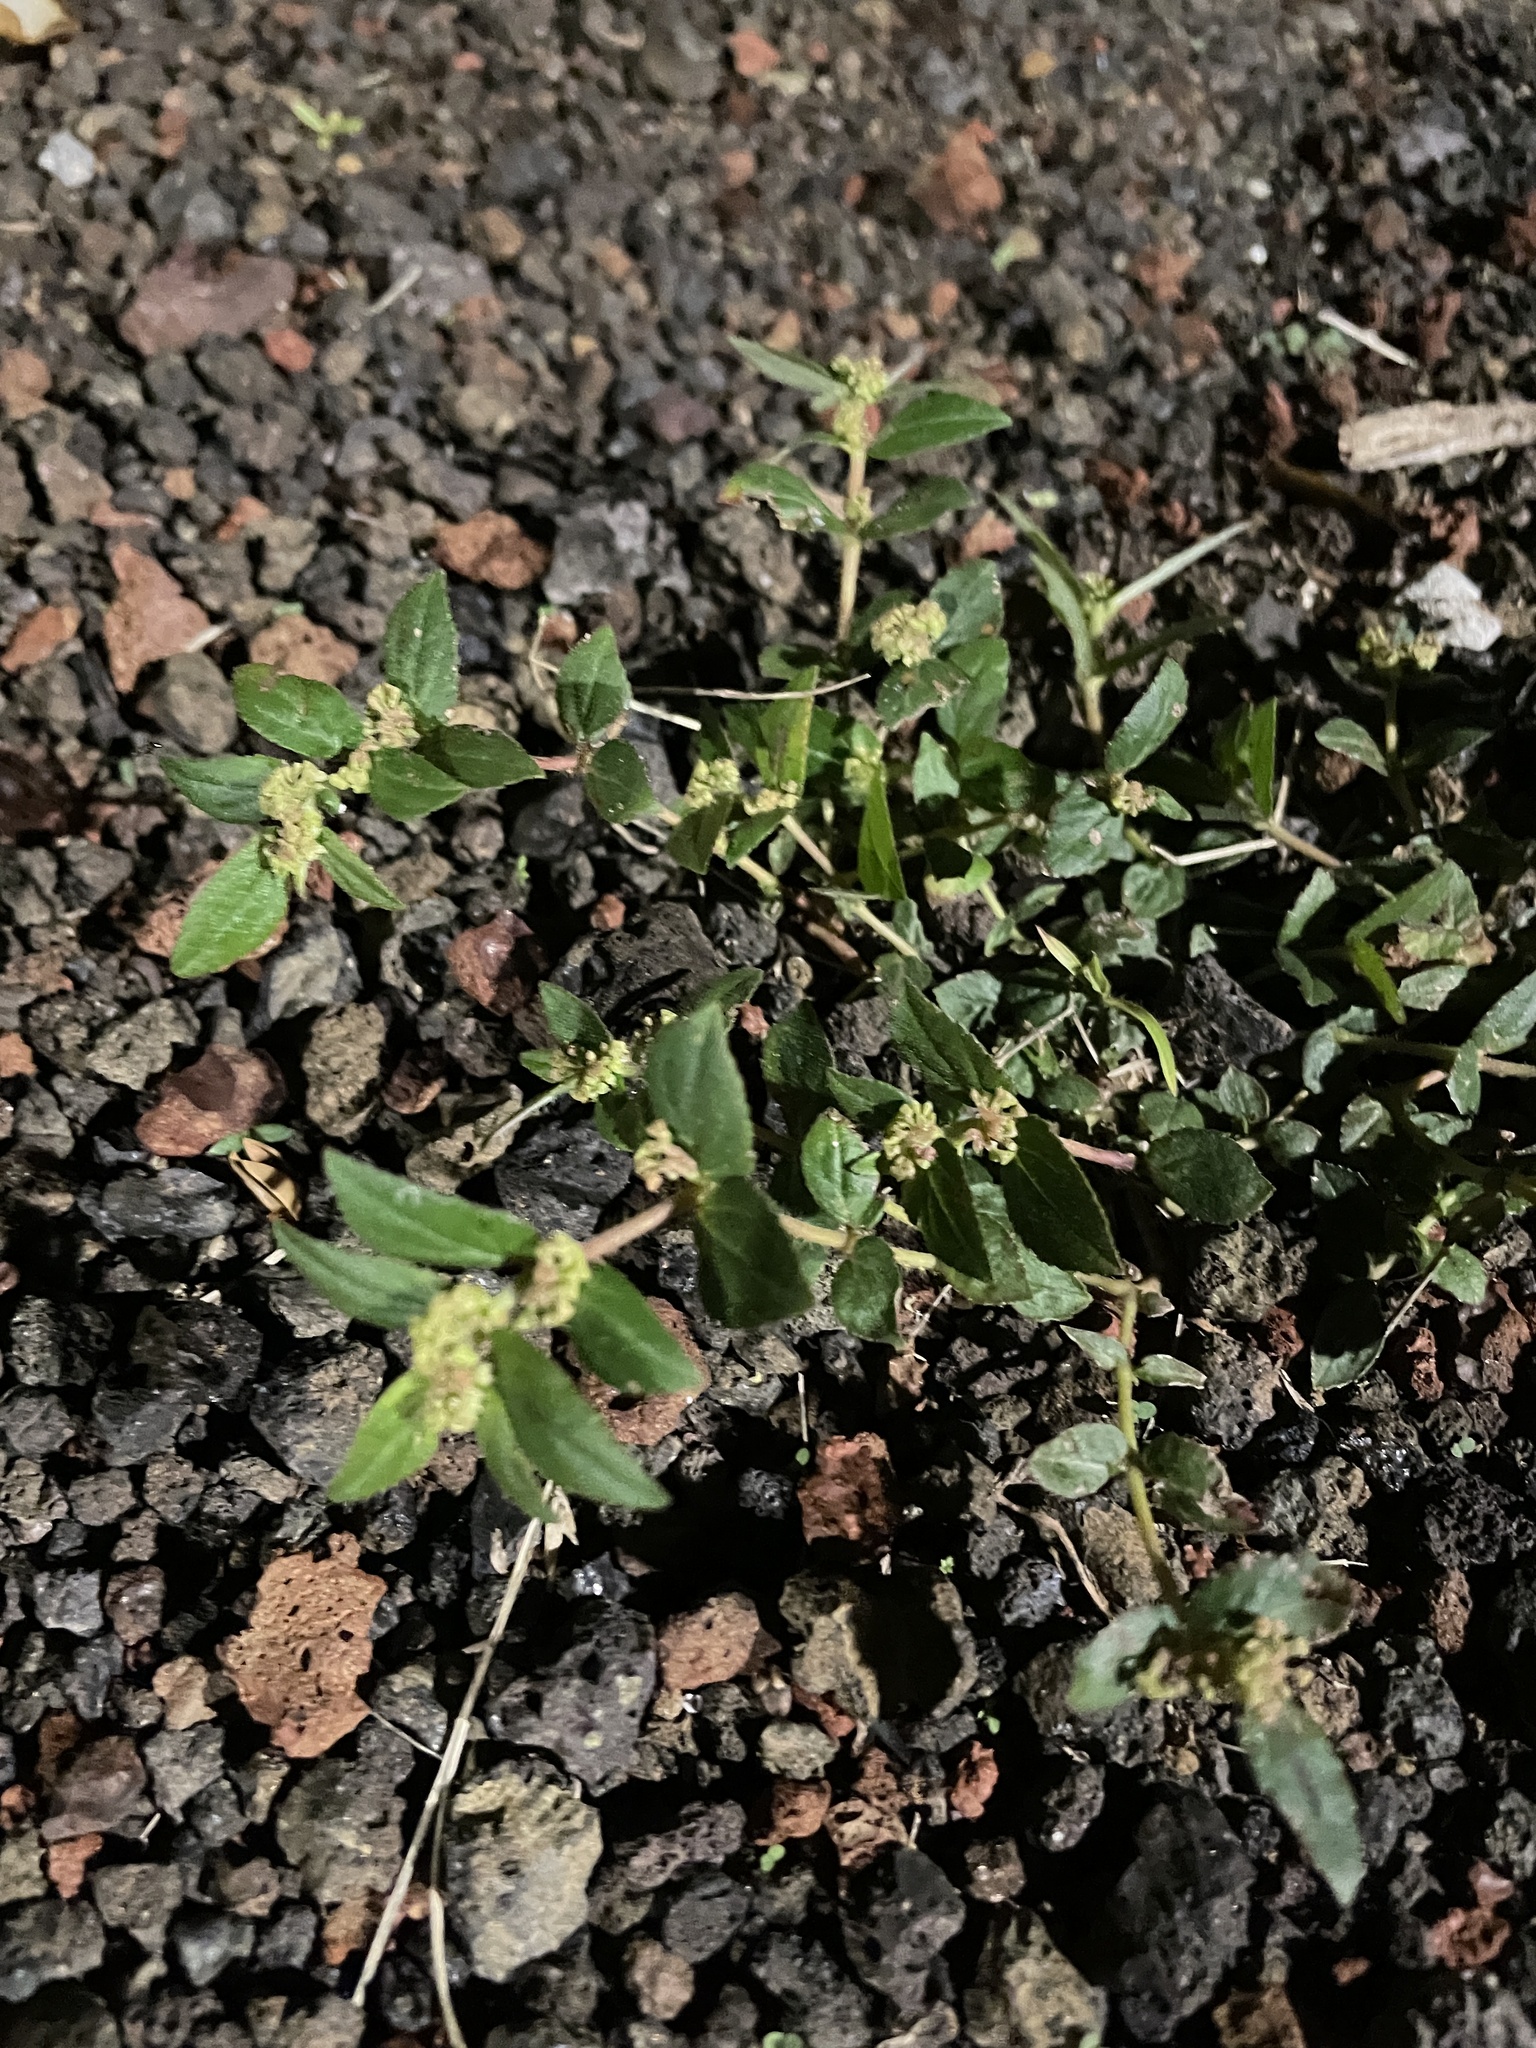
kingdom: Plantae
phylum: Tracheophyta
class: Magnoliopsida
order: Malpighiales
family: Euphorbiaceae
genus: Euphorbia
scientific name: Euphorbia hirta
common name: Pillpod sandmat
